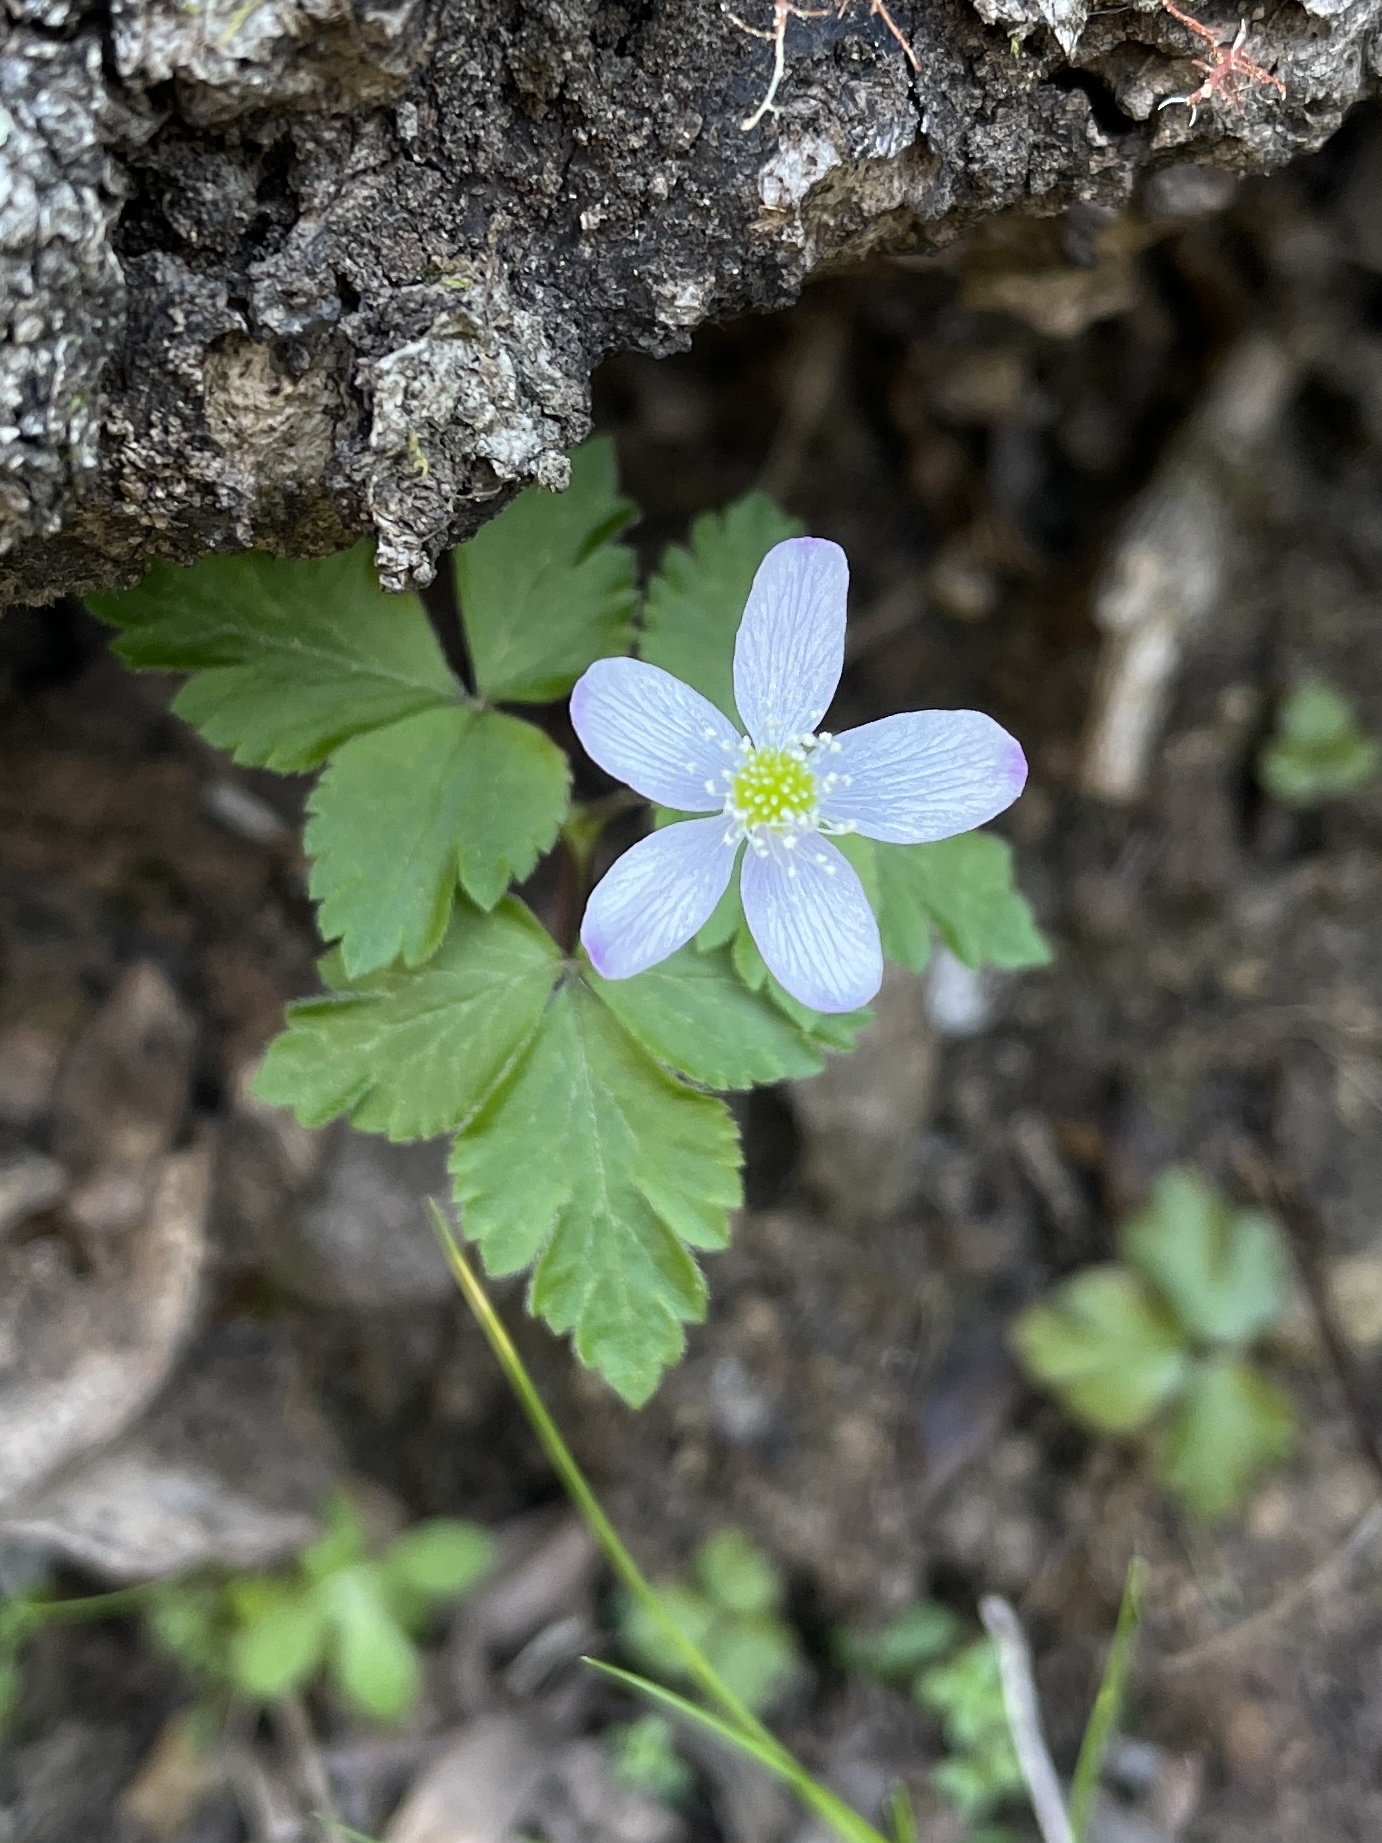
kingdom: Plantae
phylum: Tracheophyta
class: Magnoliopsida
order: Ranunculales
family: Ranunculaceae
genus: Anemone
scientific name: Anemone
